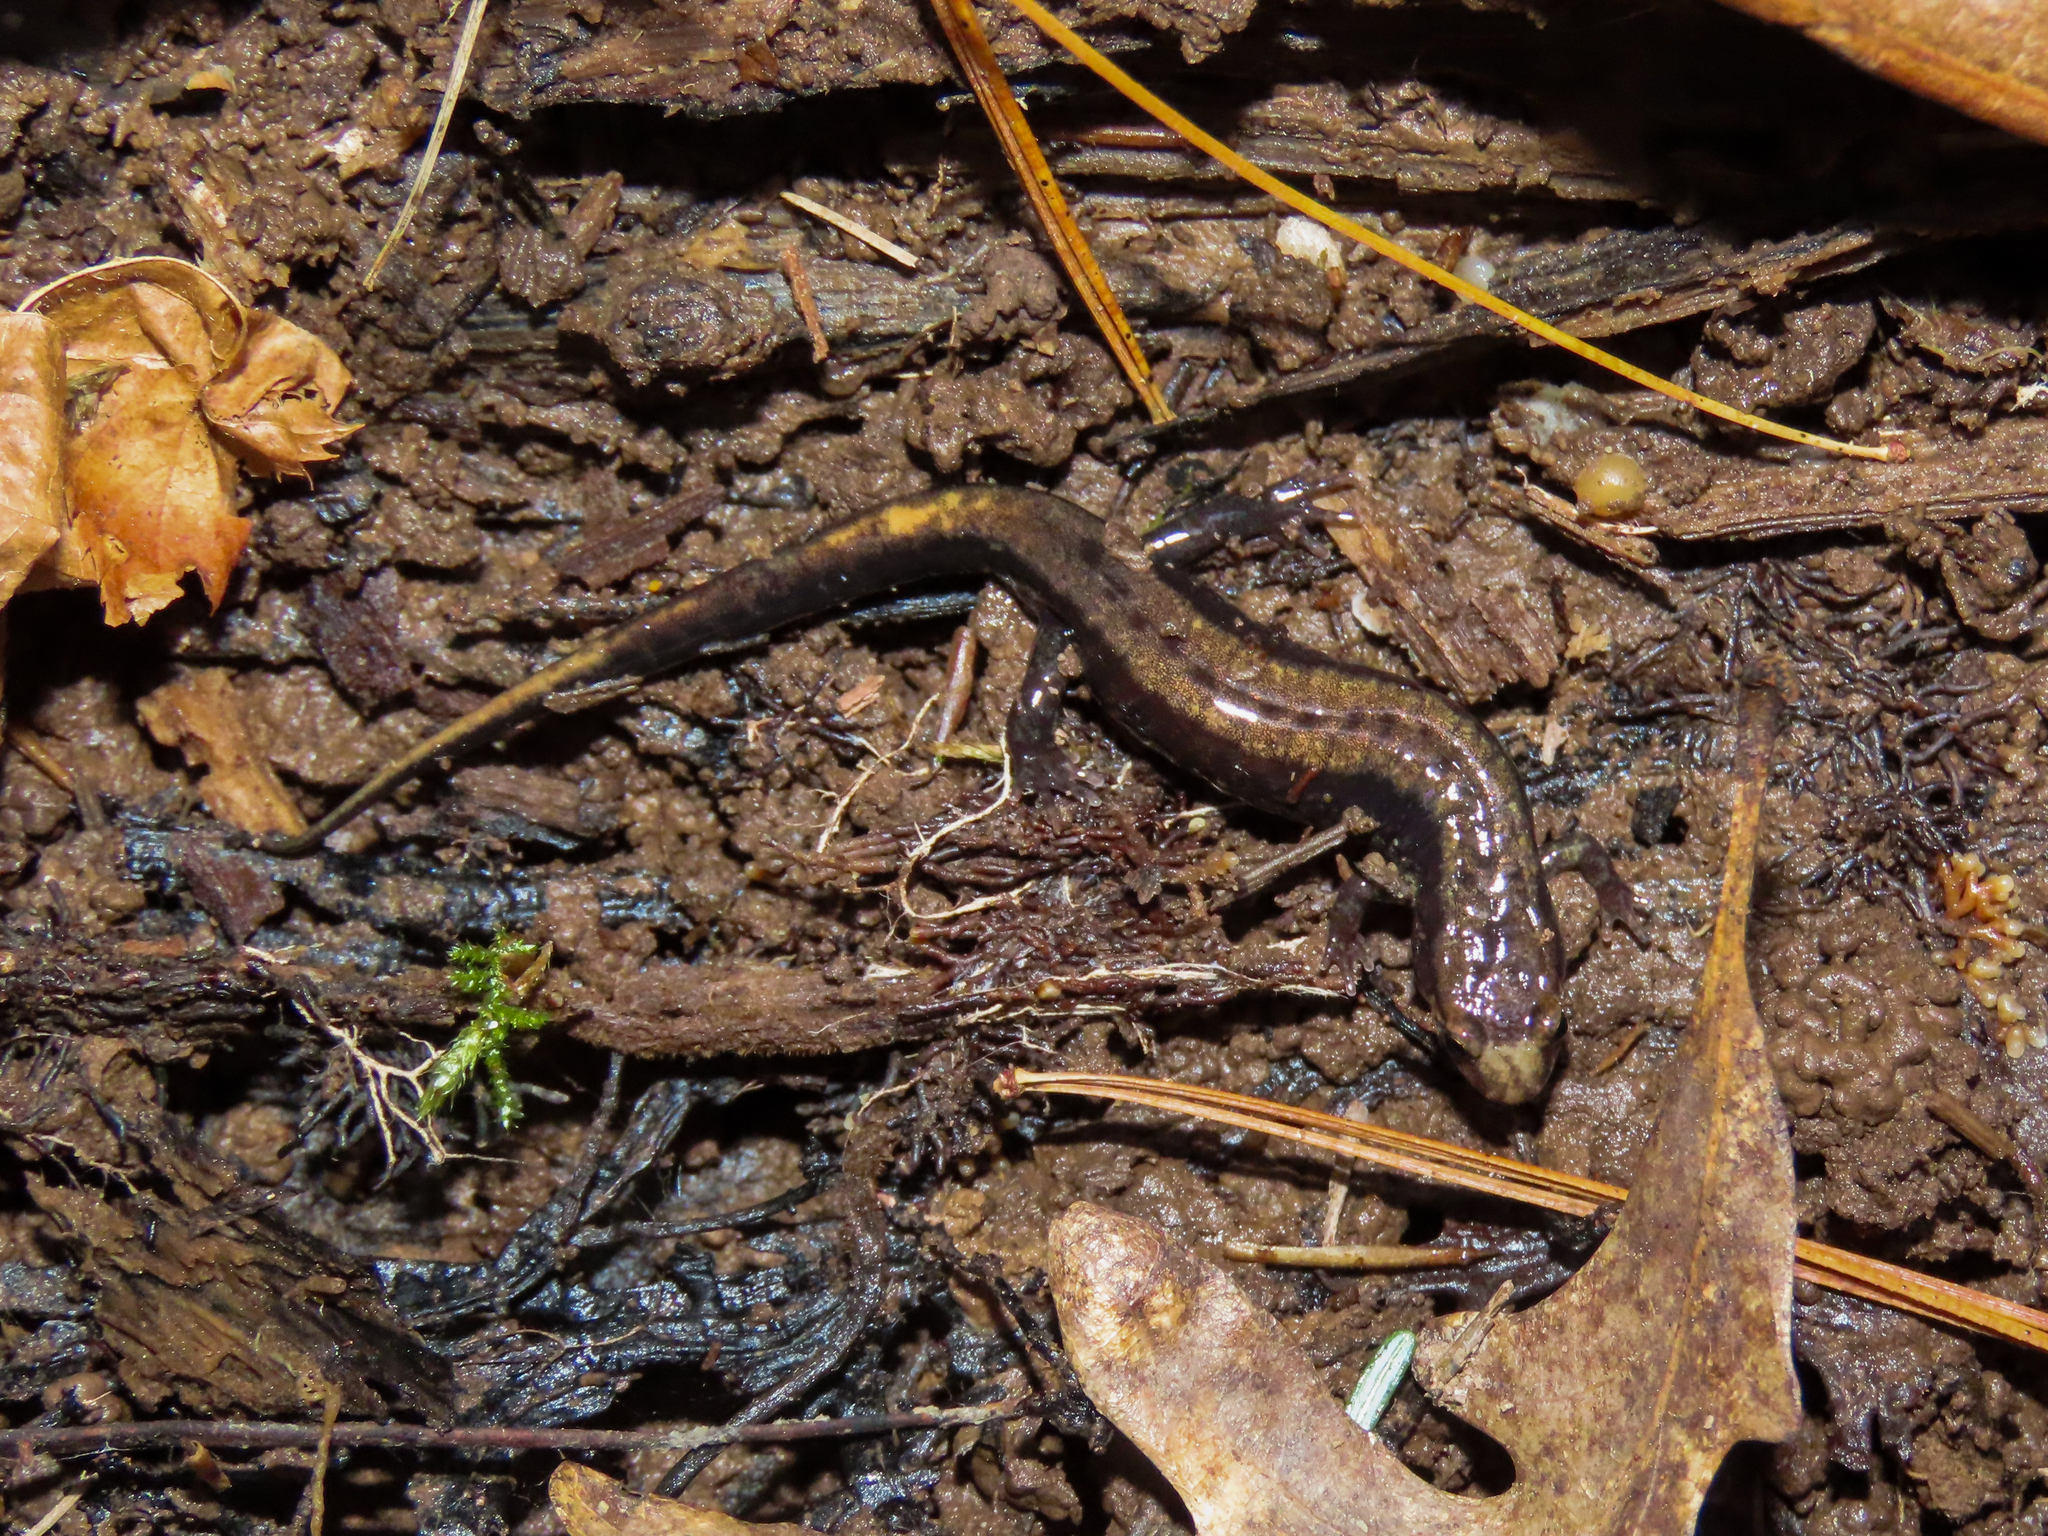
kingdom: Animalia
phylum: Chordata
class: Amphibia
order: Caudata
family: Plethodontidae
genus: Desmognathus
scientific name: Desmognathus ochrophaeus
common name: Allegheny mountain dusky salamander
